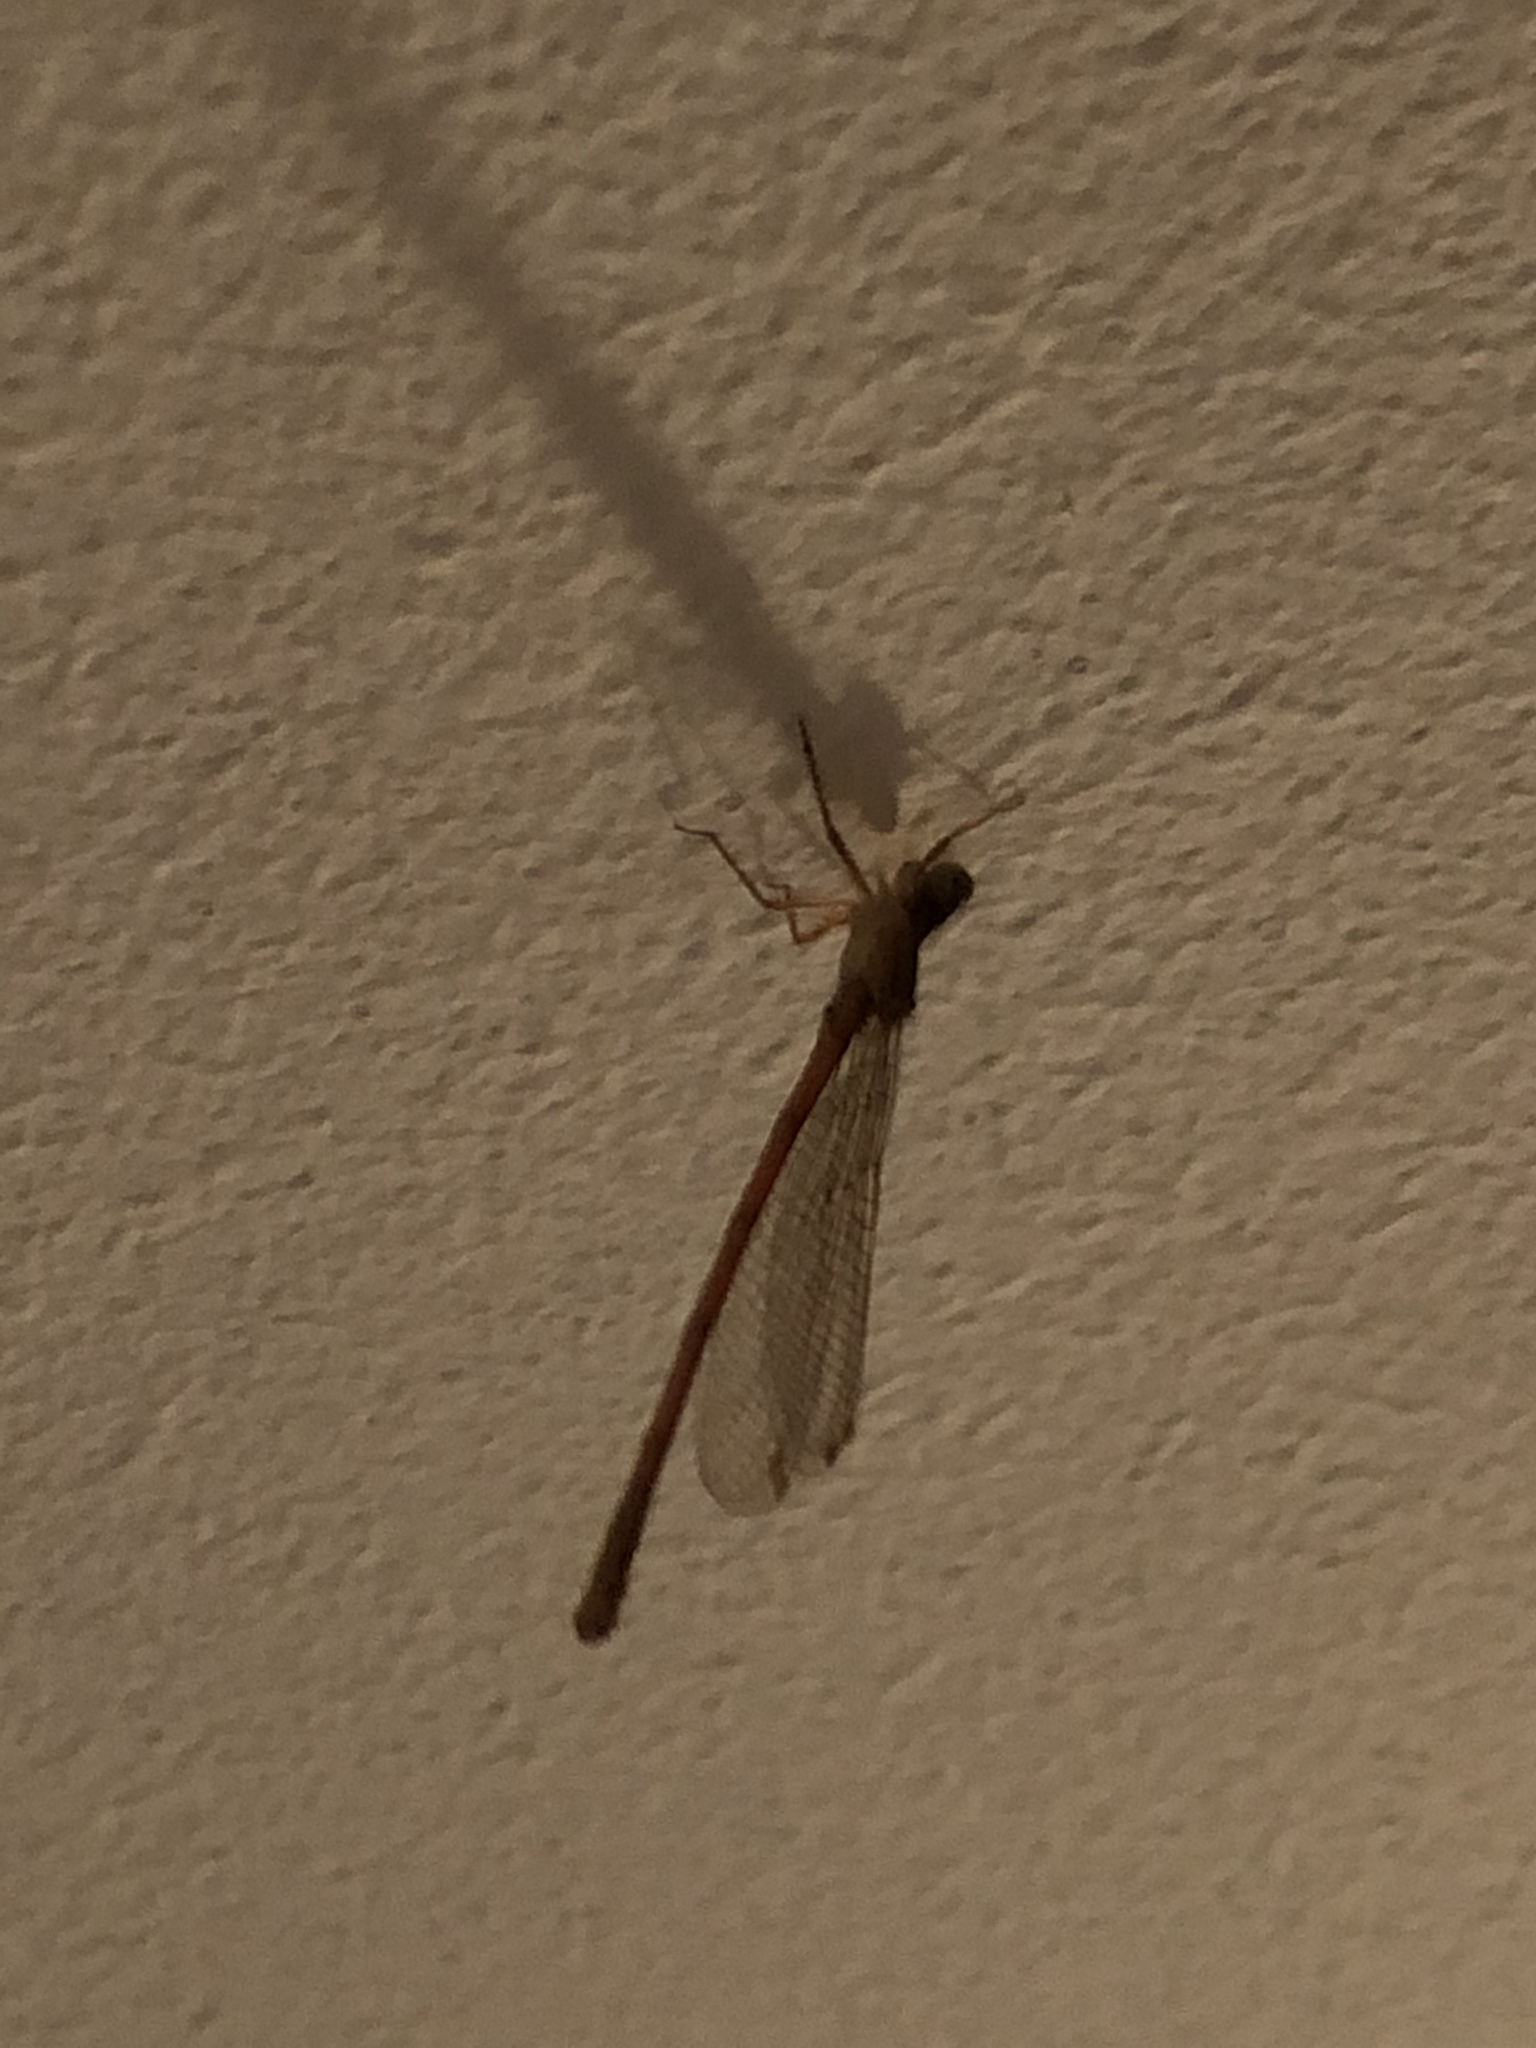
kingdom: Animalia
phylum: Arthropoda
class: Insecta
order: Odonata
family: Coenagrionidae
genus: Ceriagrion
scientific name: Ceriagrion glabrum
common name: Common pond damsel
